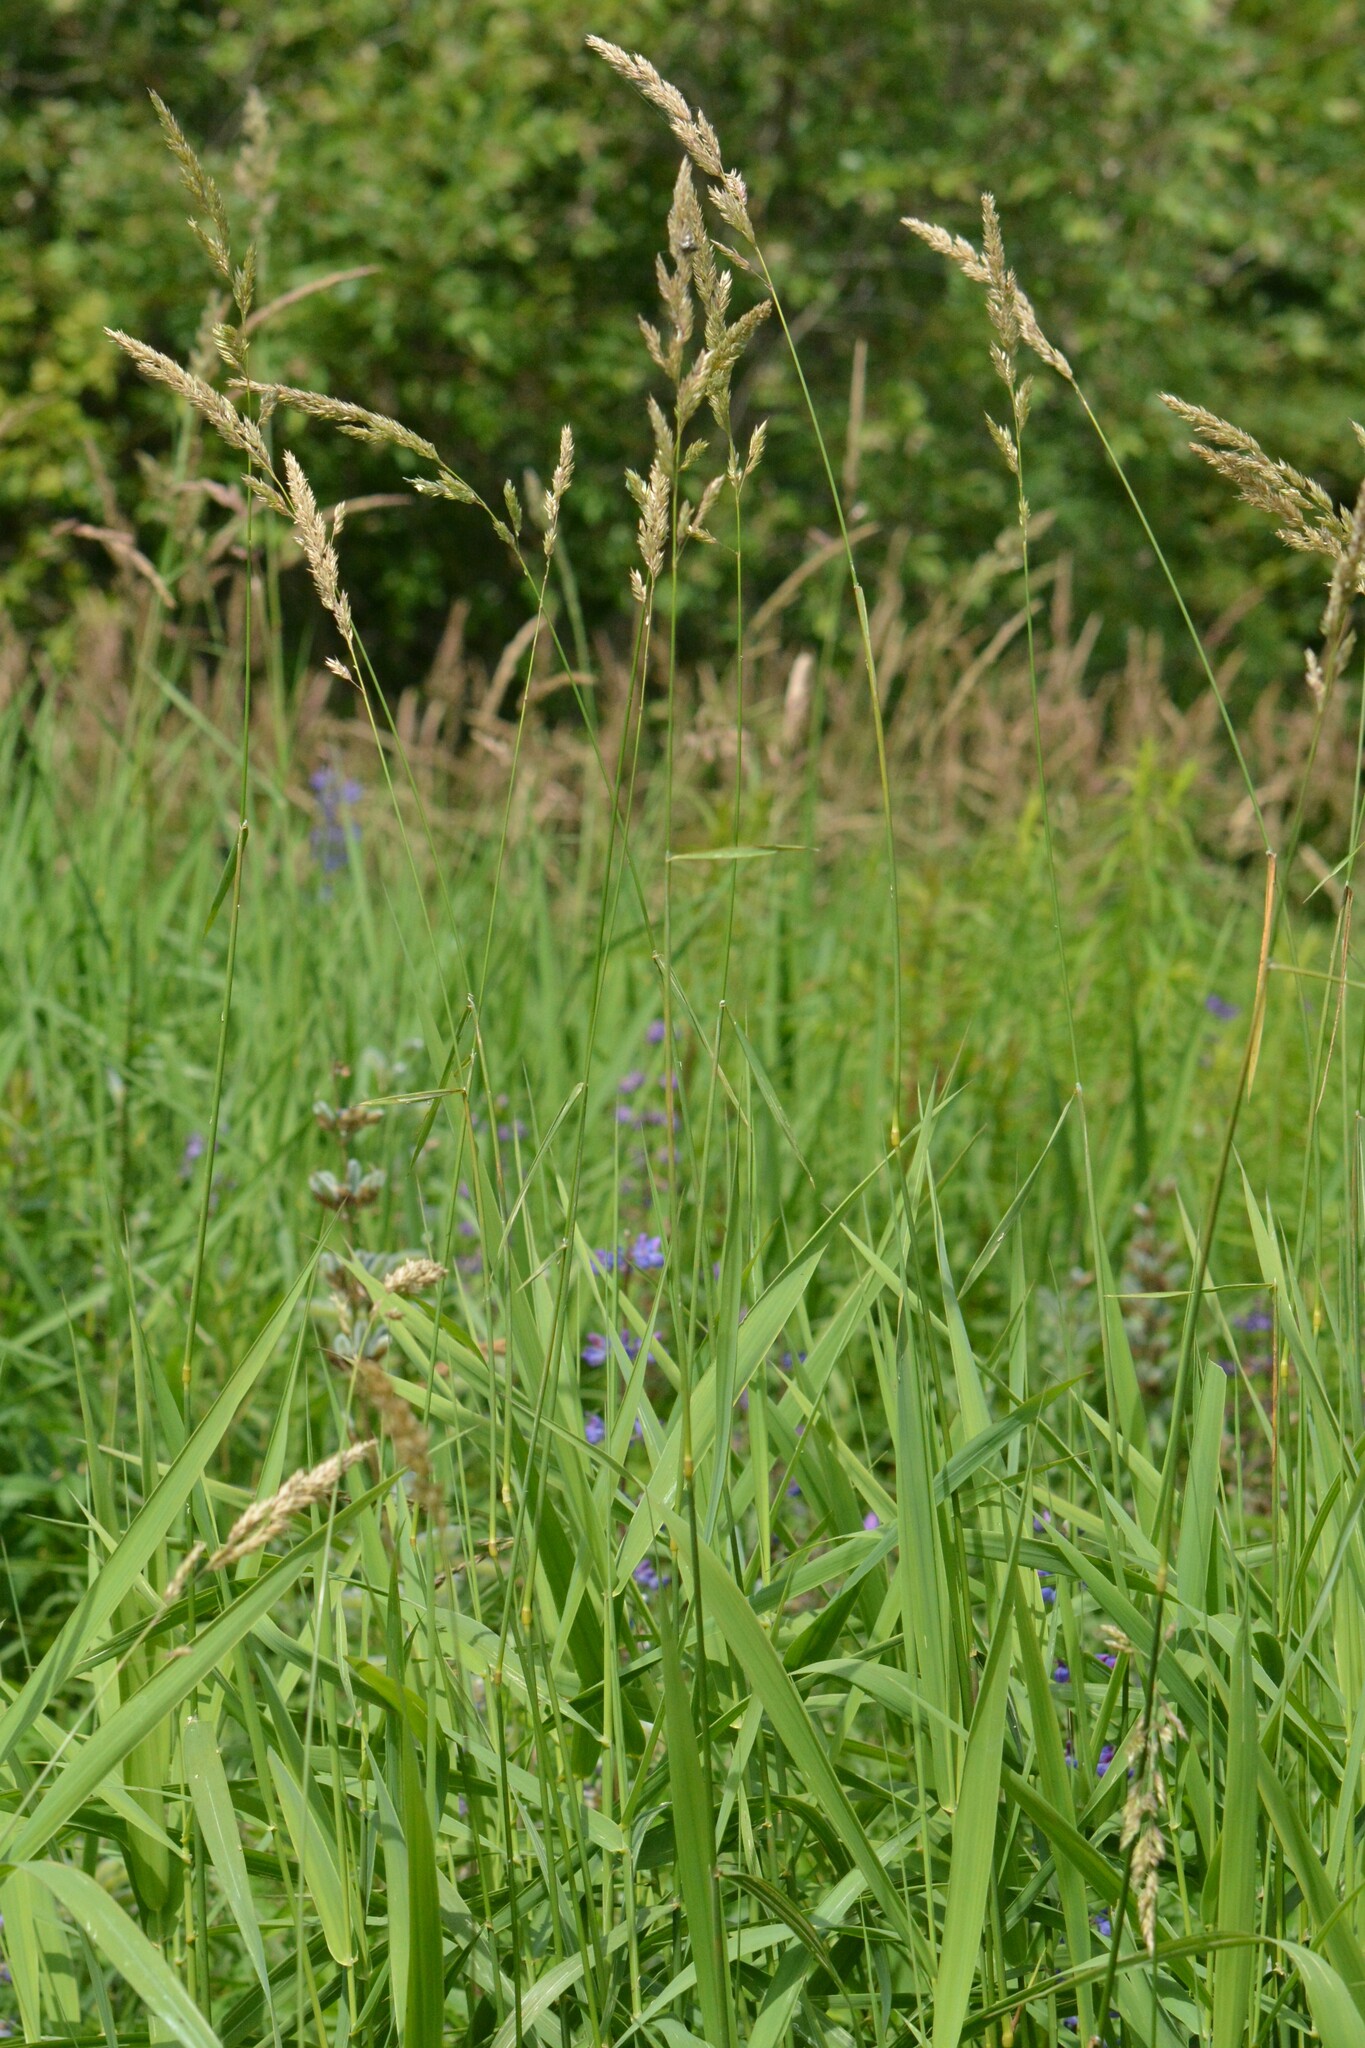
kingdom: Plantae
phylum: Tracheophyta
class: Liliopsida
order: Poales
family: Poaceae
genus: Phalaris
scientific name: Phalaris arundinacea
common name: Reed canary-grass
